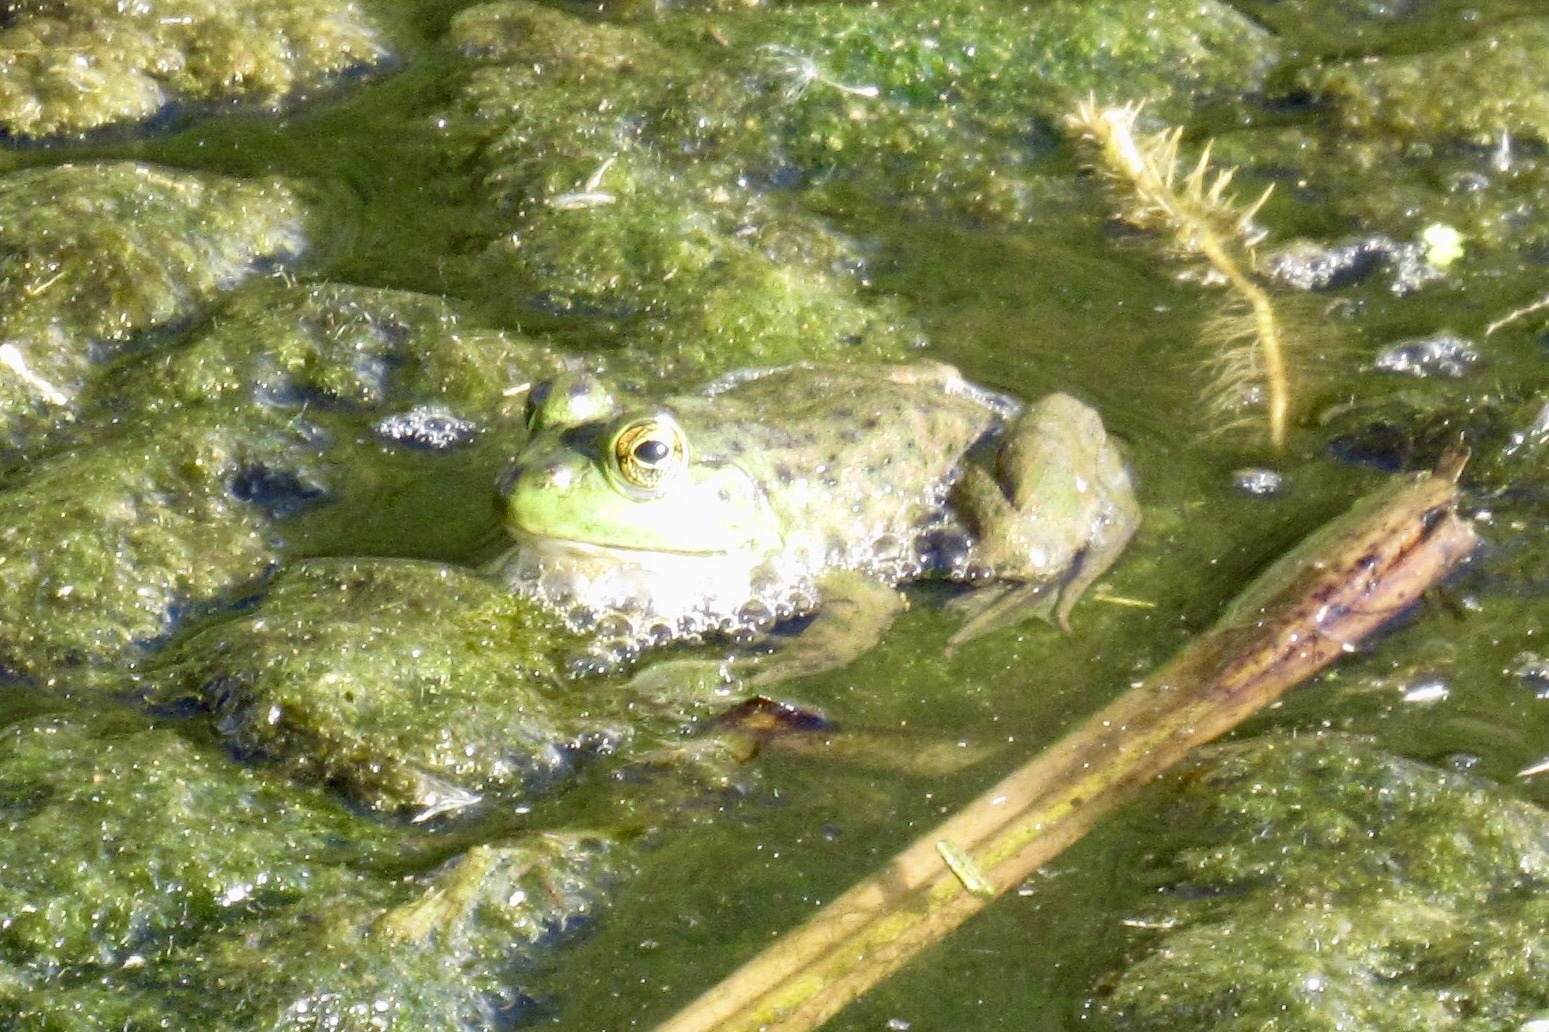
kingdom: Animalia
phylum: Chordata
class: Amphibia
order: Anura
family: Ranidae
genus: Lithobates
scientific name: Lithobates catesbeianus
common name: American bullfrog
